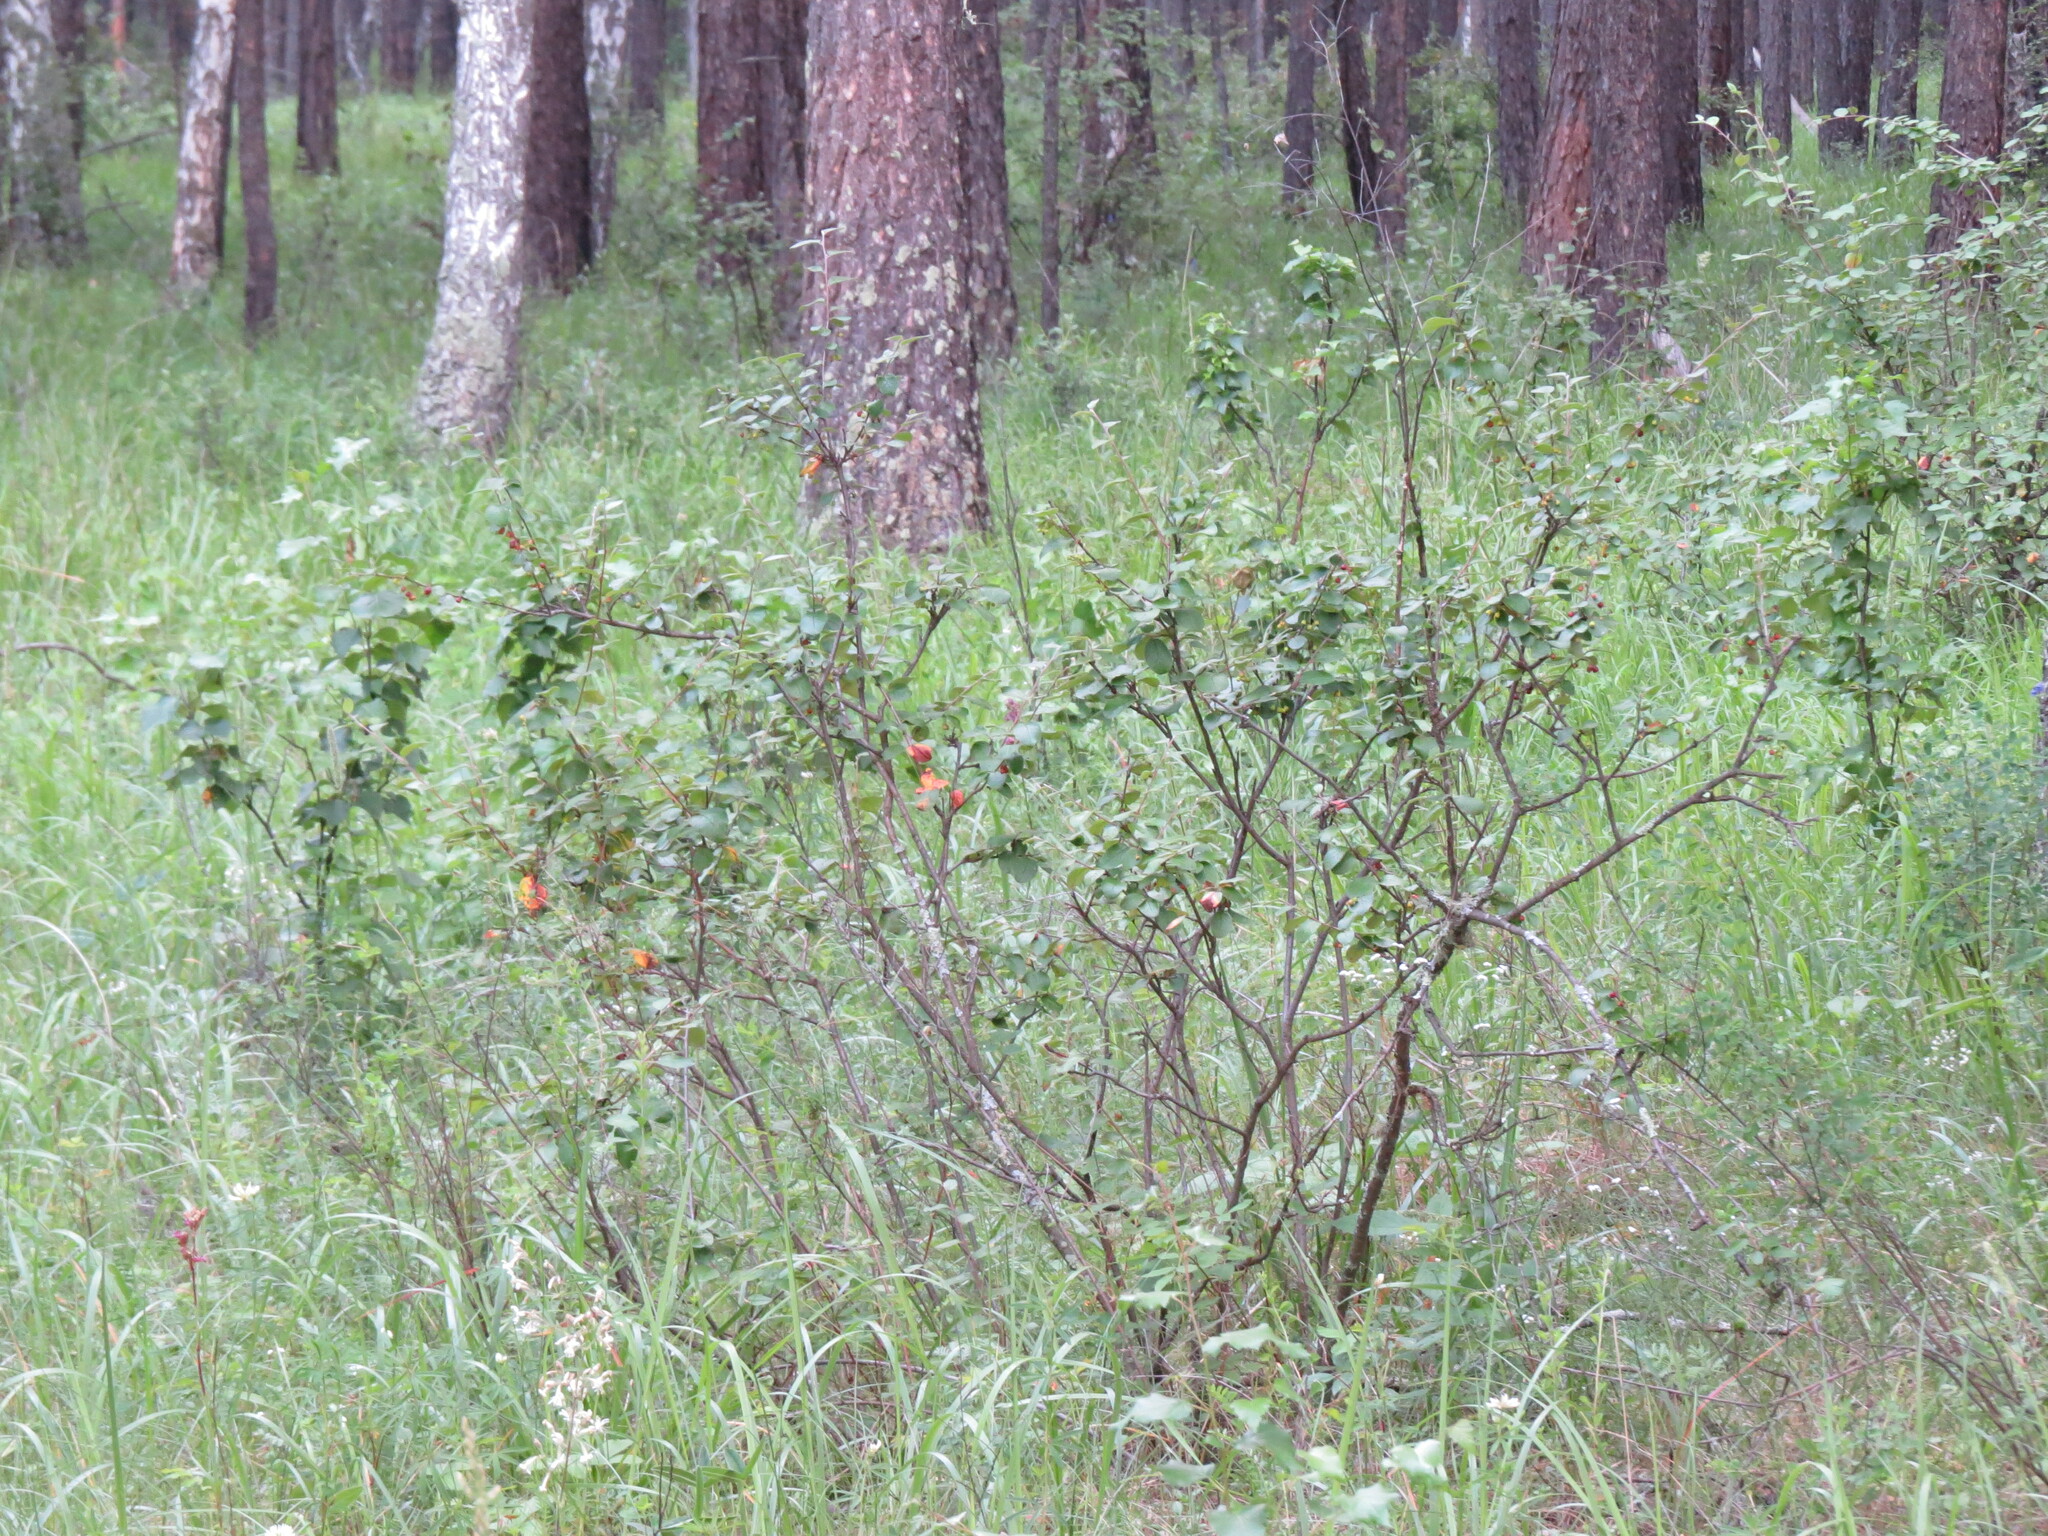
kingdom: Plantae
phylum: Tracheophyta
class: Magnoliopsida
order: Rosales
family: Rosaceae
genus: Cotoneaster
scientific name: Cotoneaster melanocarpus
